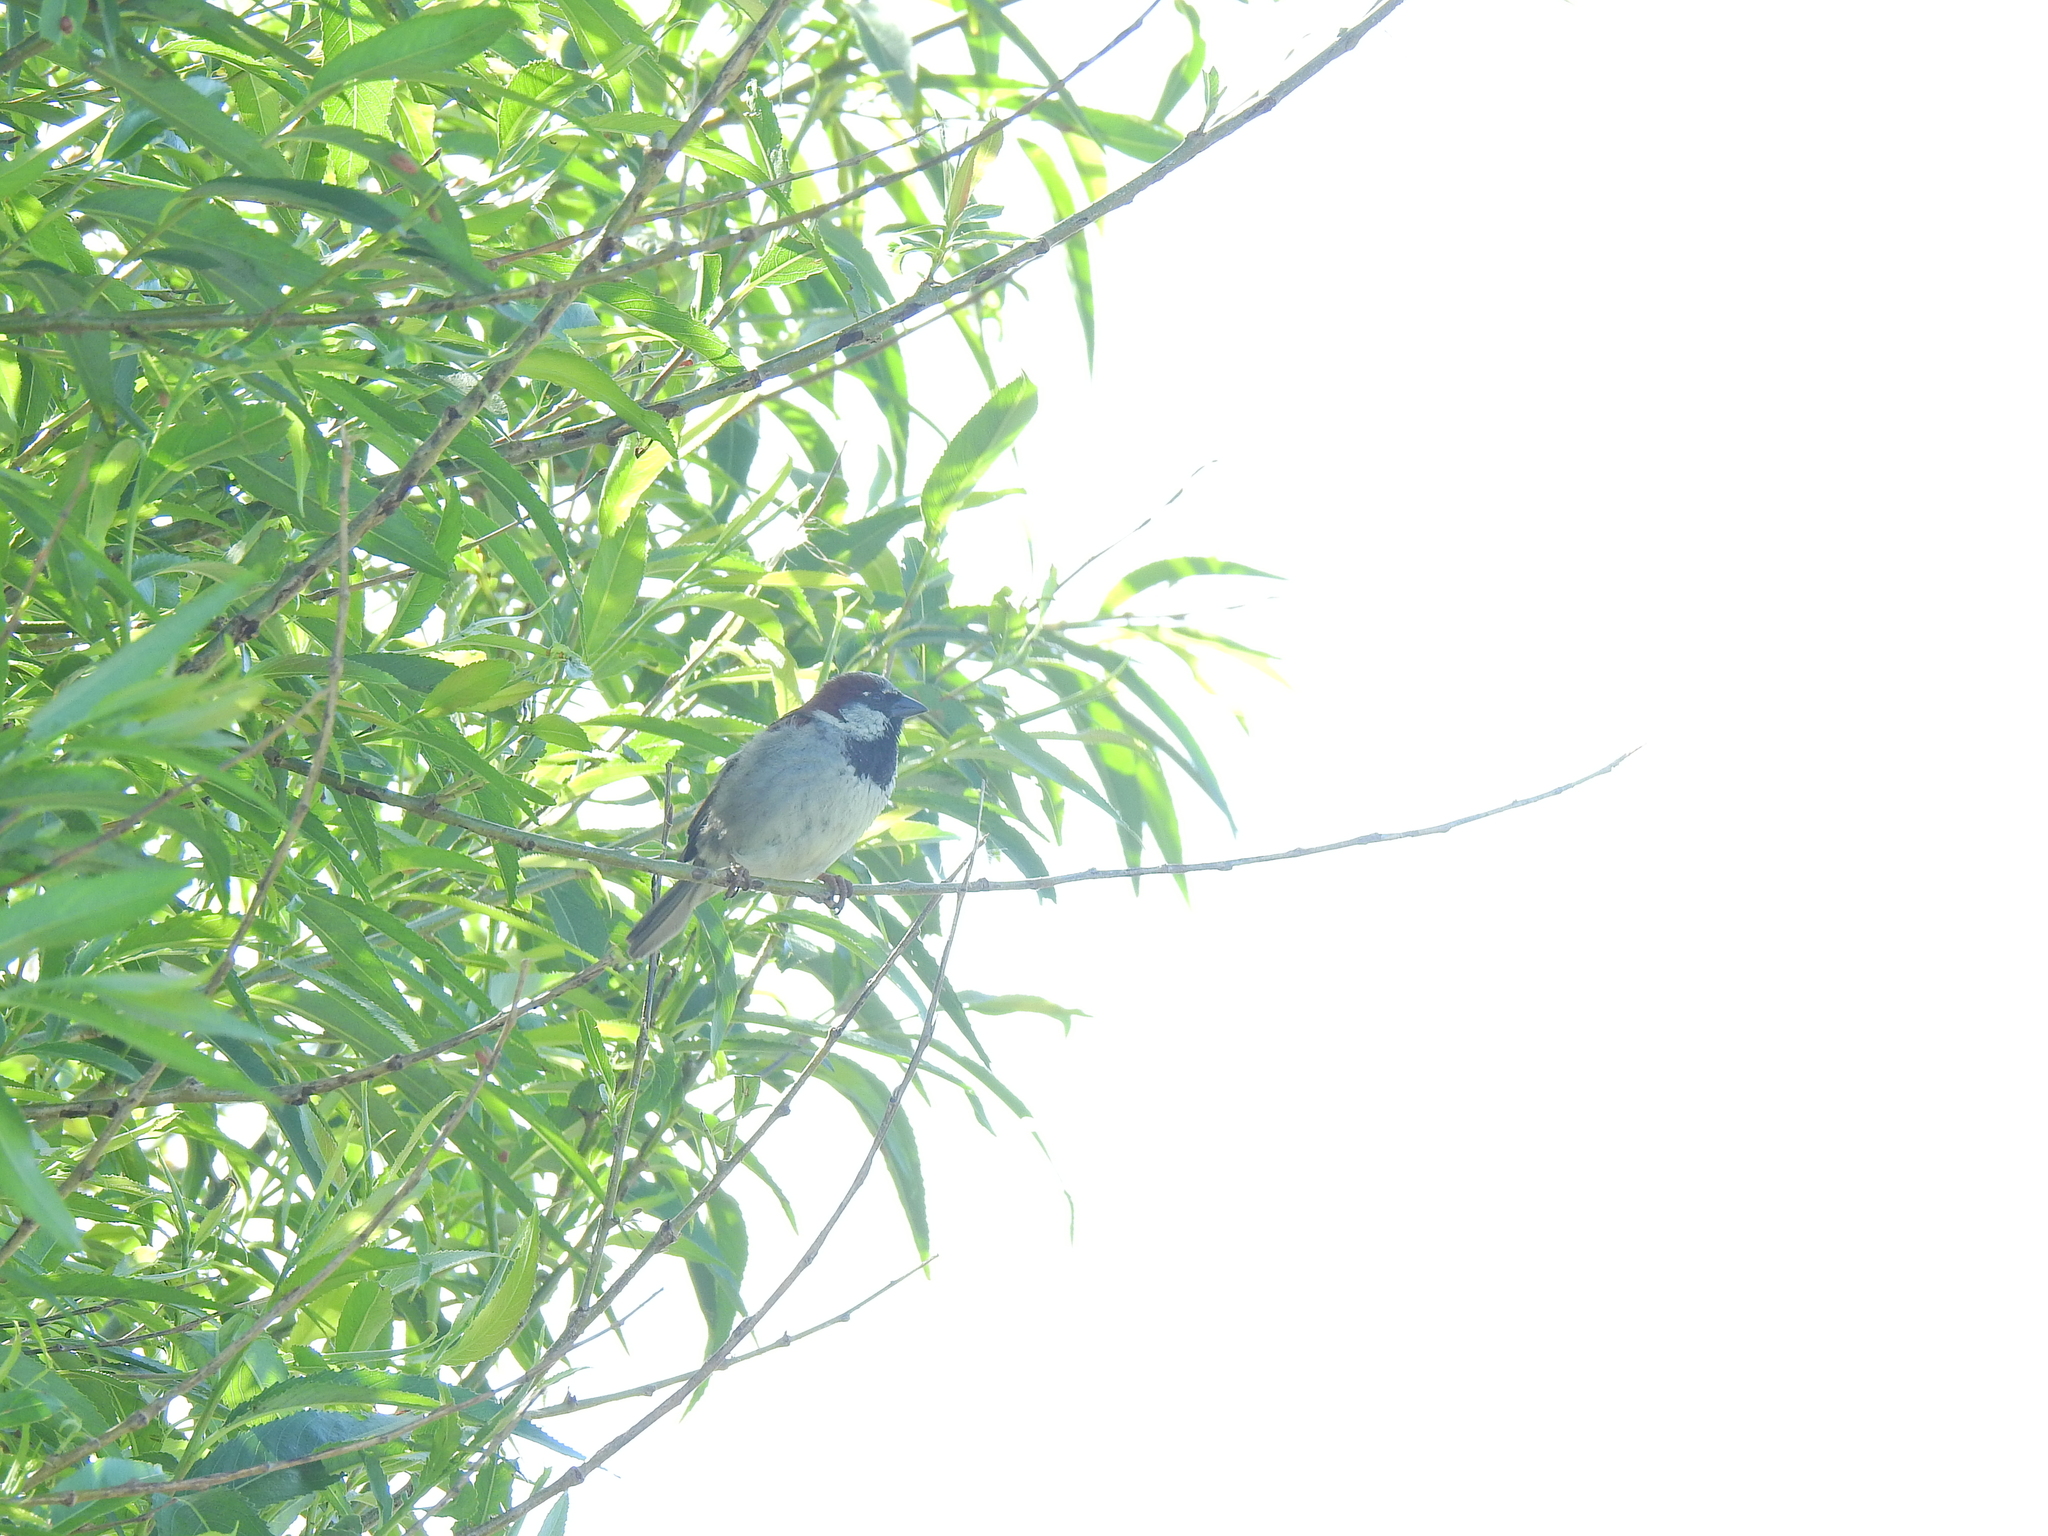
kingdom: Animalia
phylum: Chordata
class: Aves
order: Passeriformes
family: Passeridae
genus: Passer
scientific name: Passer domesticus
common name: House sparrow
